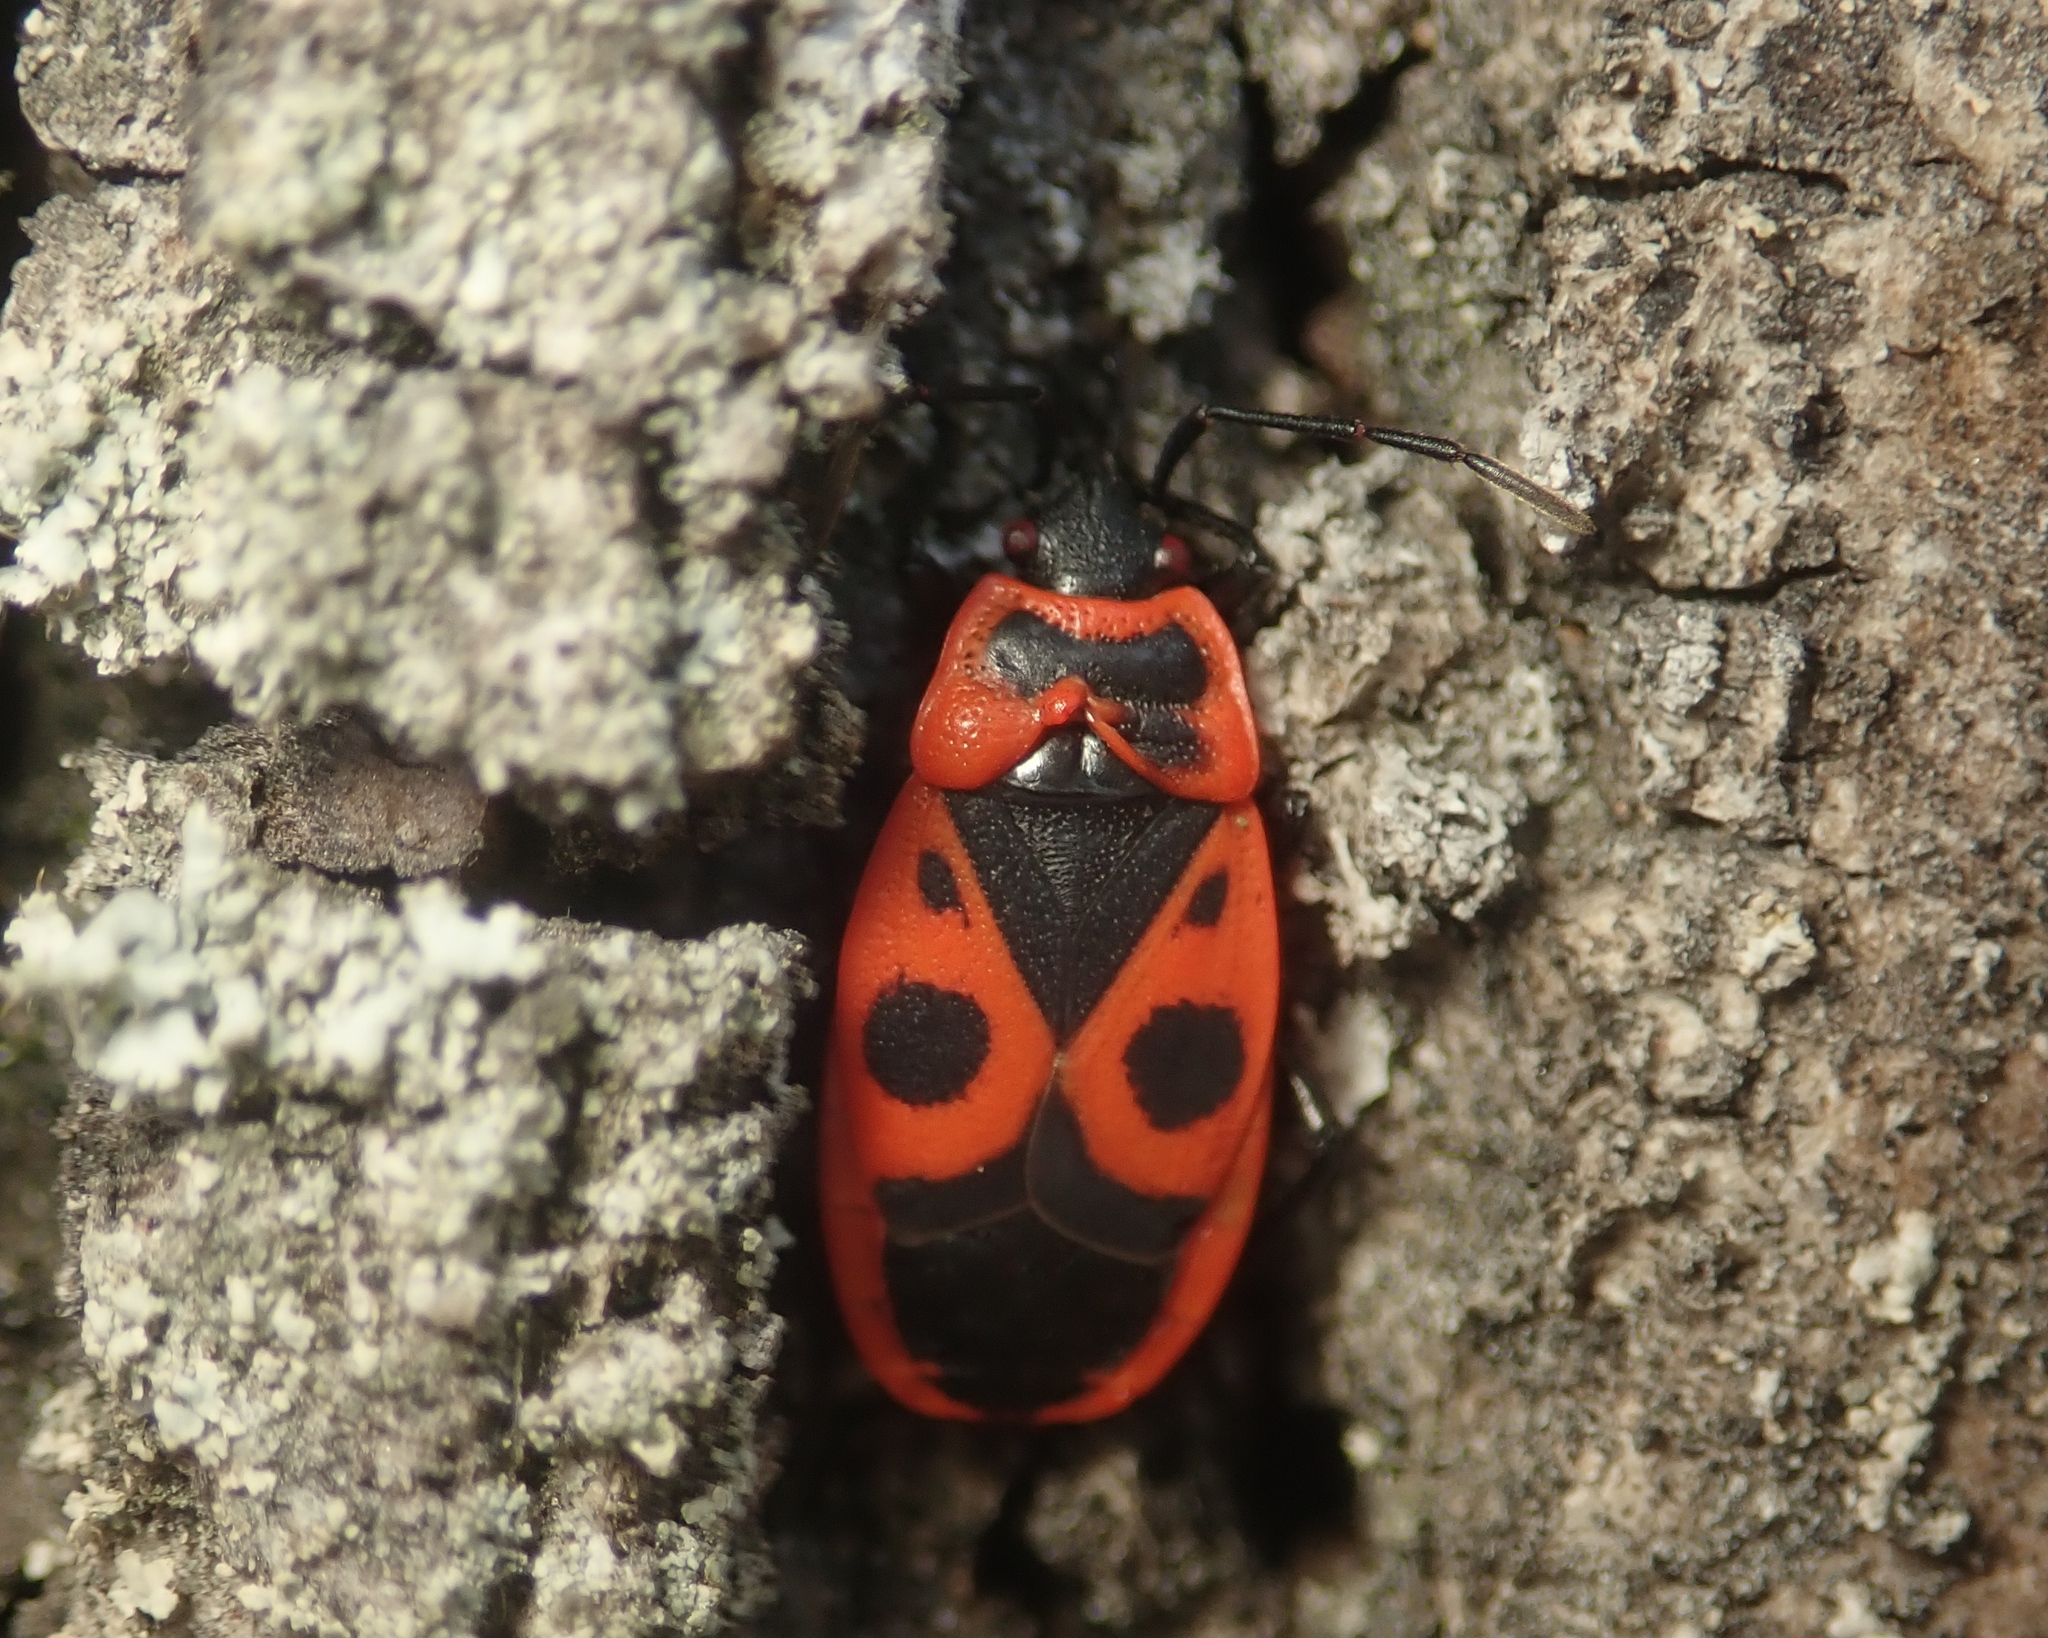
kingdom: Animalia
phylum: Arthropoda
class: Insecta
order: Hemiptera
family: Pyrrhocoridae
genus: Pyrrhocoris
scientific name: Pyrrhocoris apterus
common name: Firebug
